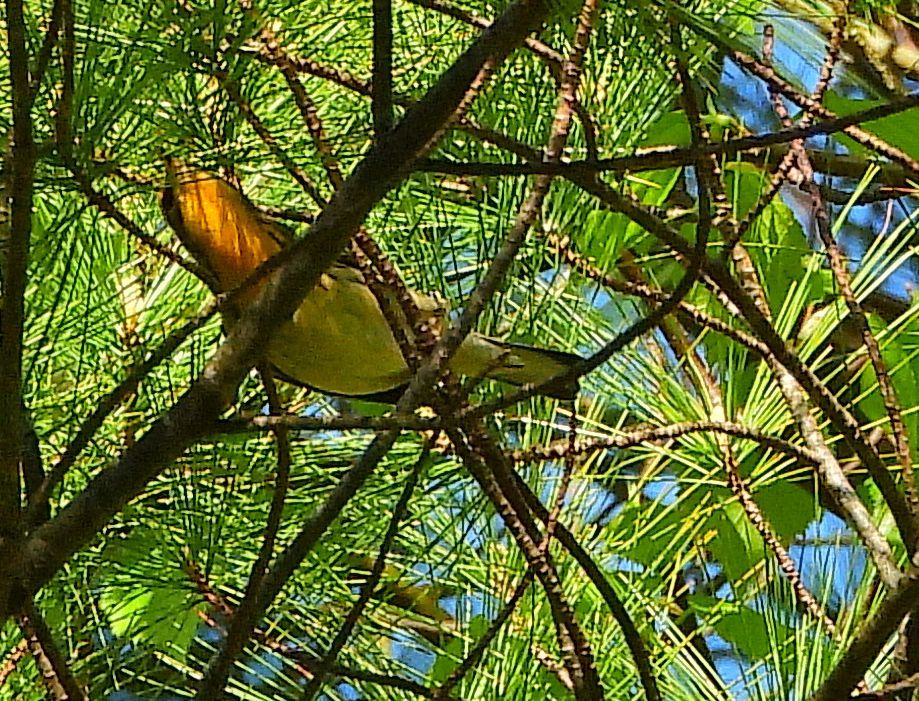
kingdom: Animalia
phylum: Chordata
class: Aves
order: Passeriformes
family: Parulidae
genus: Setophaga
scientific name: Setophaga fusca
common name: Blackburnian warbler
